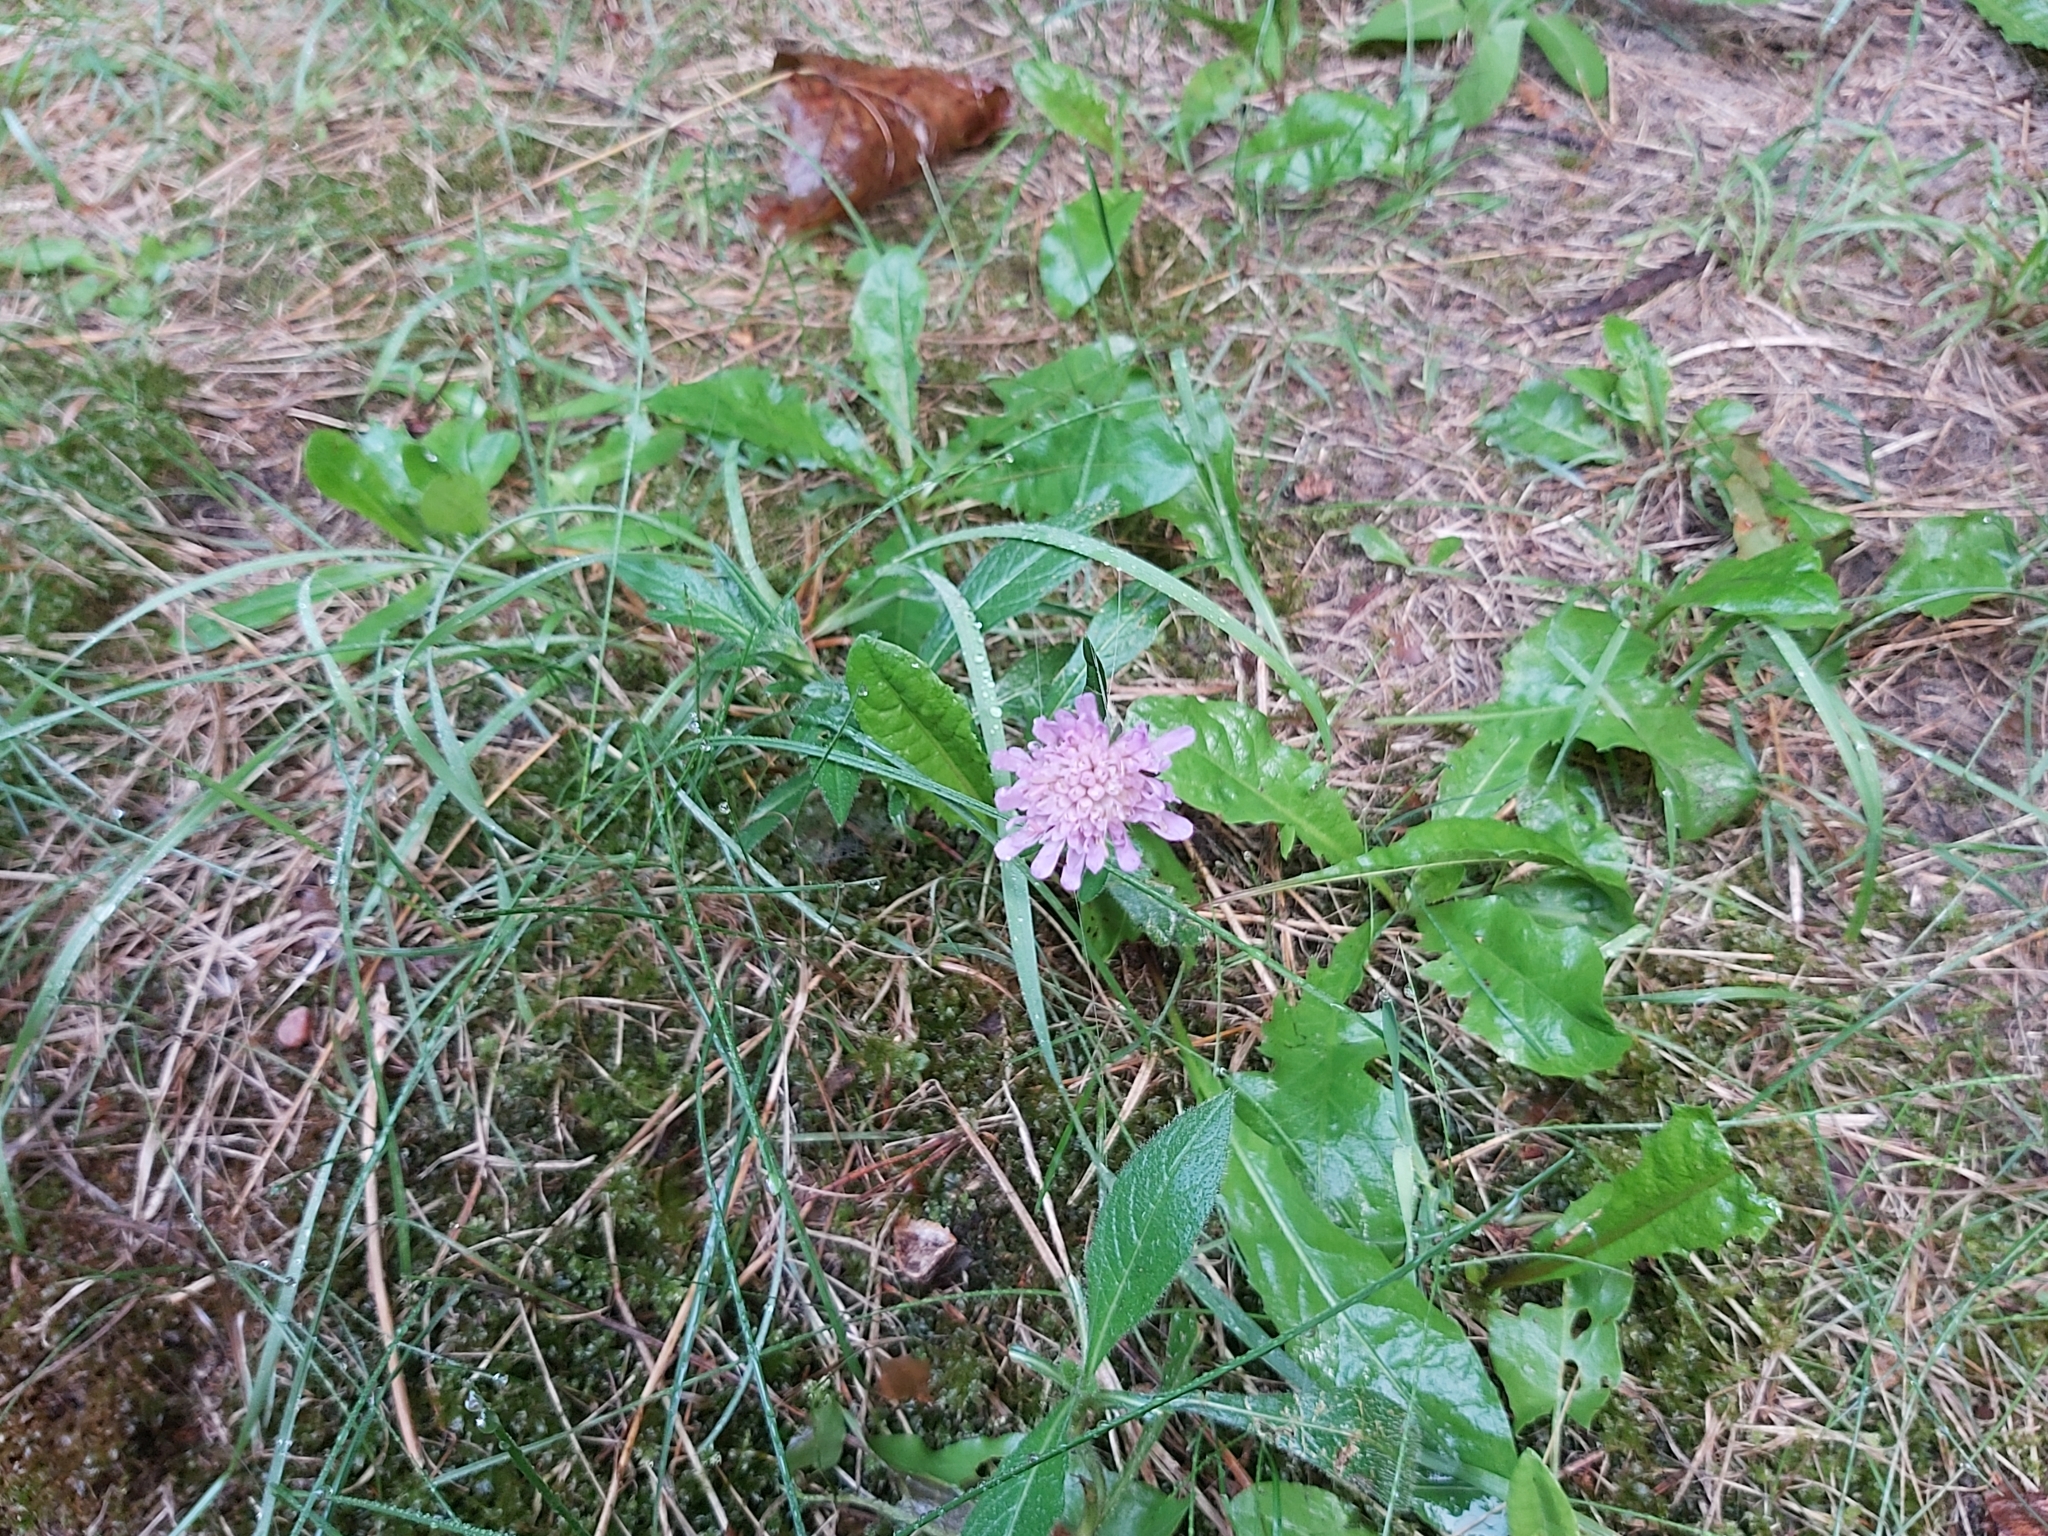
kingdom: Plantae
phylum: Tracheophyta
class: Magnoliopsida
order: Dipsacales
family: Caprifoliaceae
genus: Knautia
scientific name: Knautia arvensis
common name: Field scabiosa
